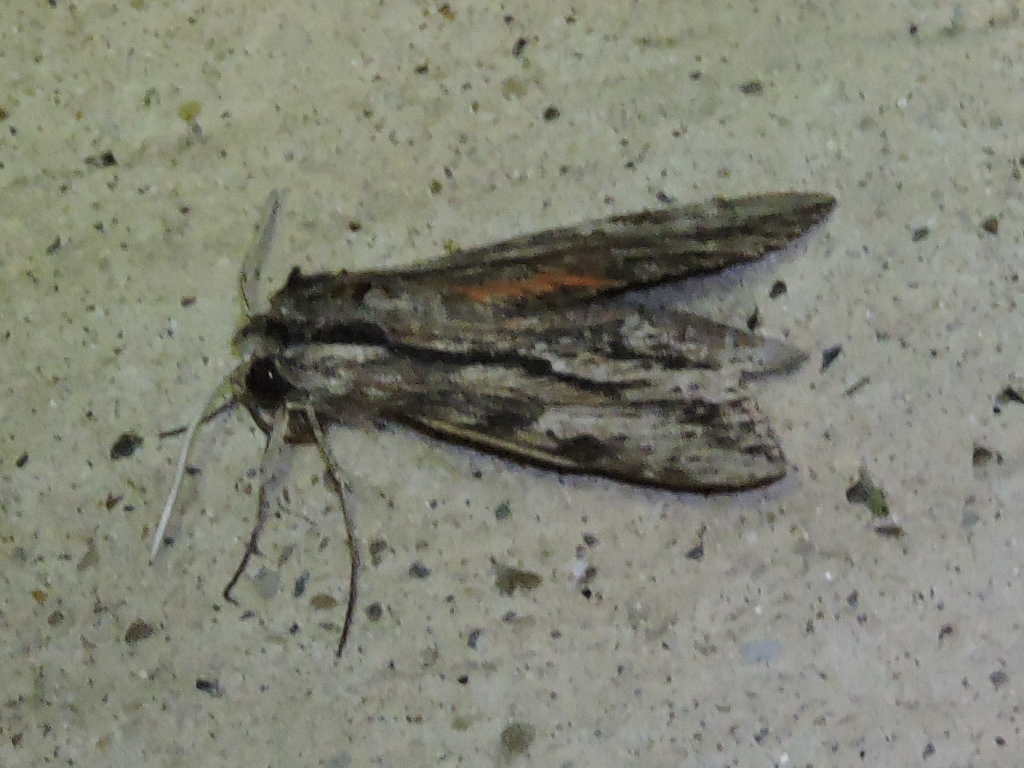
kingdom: Animalia
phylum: Arthropoda
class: Insecta
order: Lepidoptera
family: Sphingidae
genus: Erinnyis
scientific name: Erinnyis obscura
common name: Obscure sphinx
